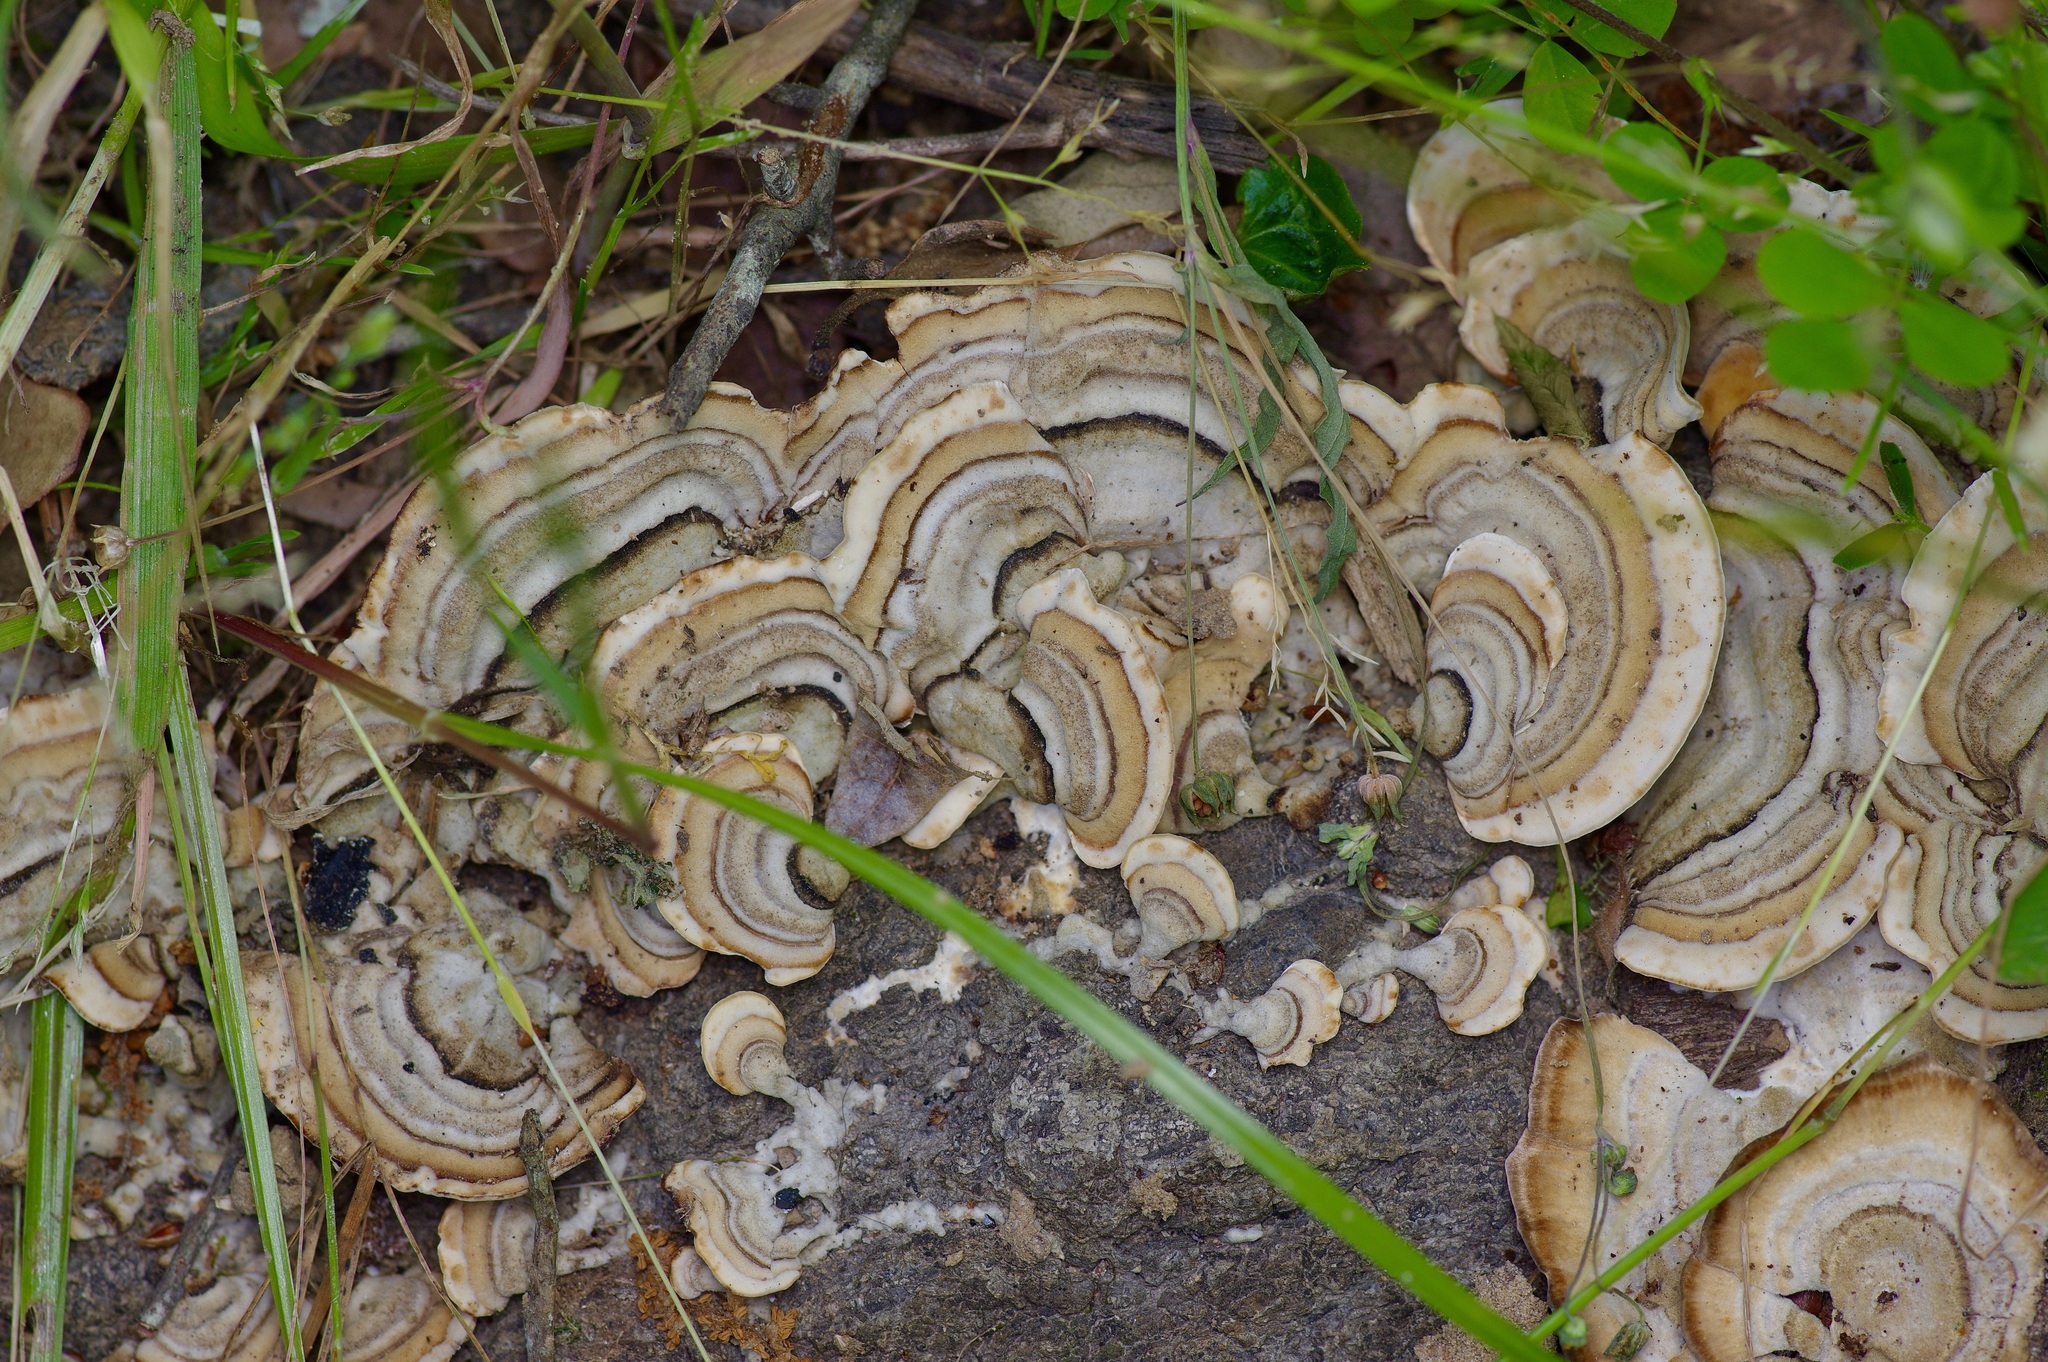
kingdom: Fungi
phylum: Basidiomycota
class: Agaricomycetes
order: Polyporales
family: Polyporaceae
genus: Trametes
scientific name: Trametes versicolor
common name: Turkeytail
